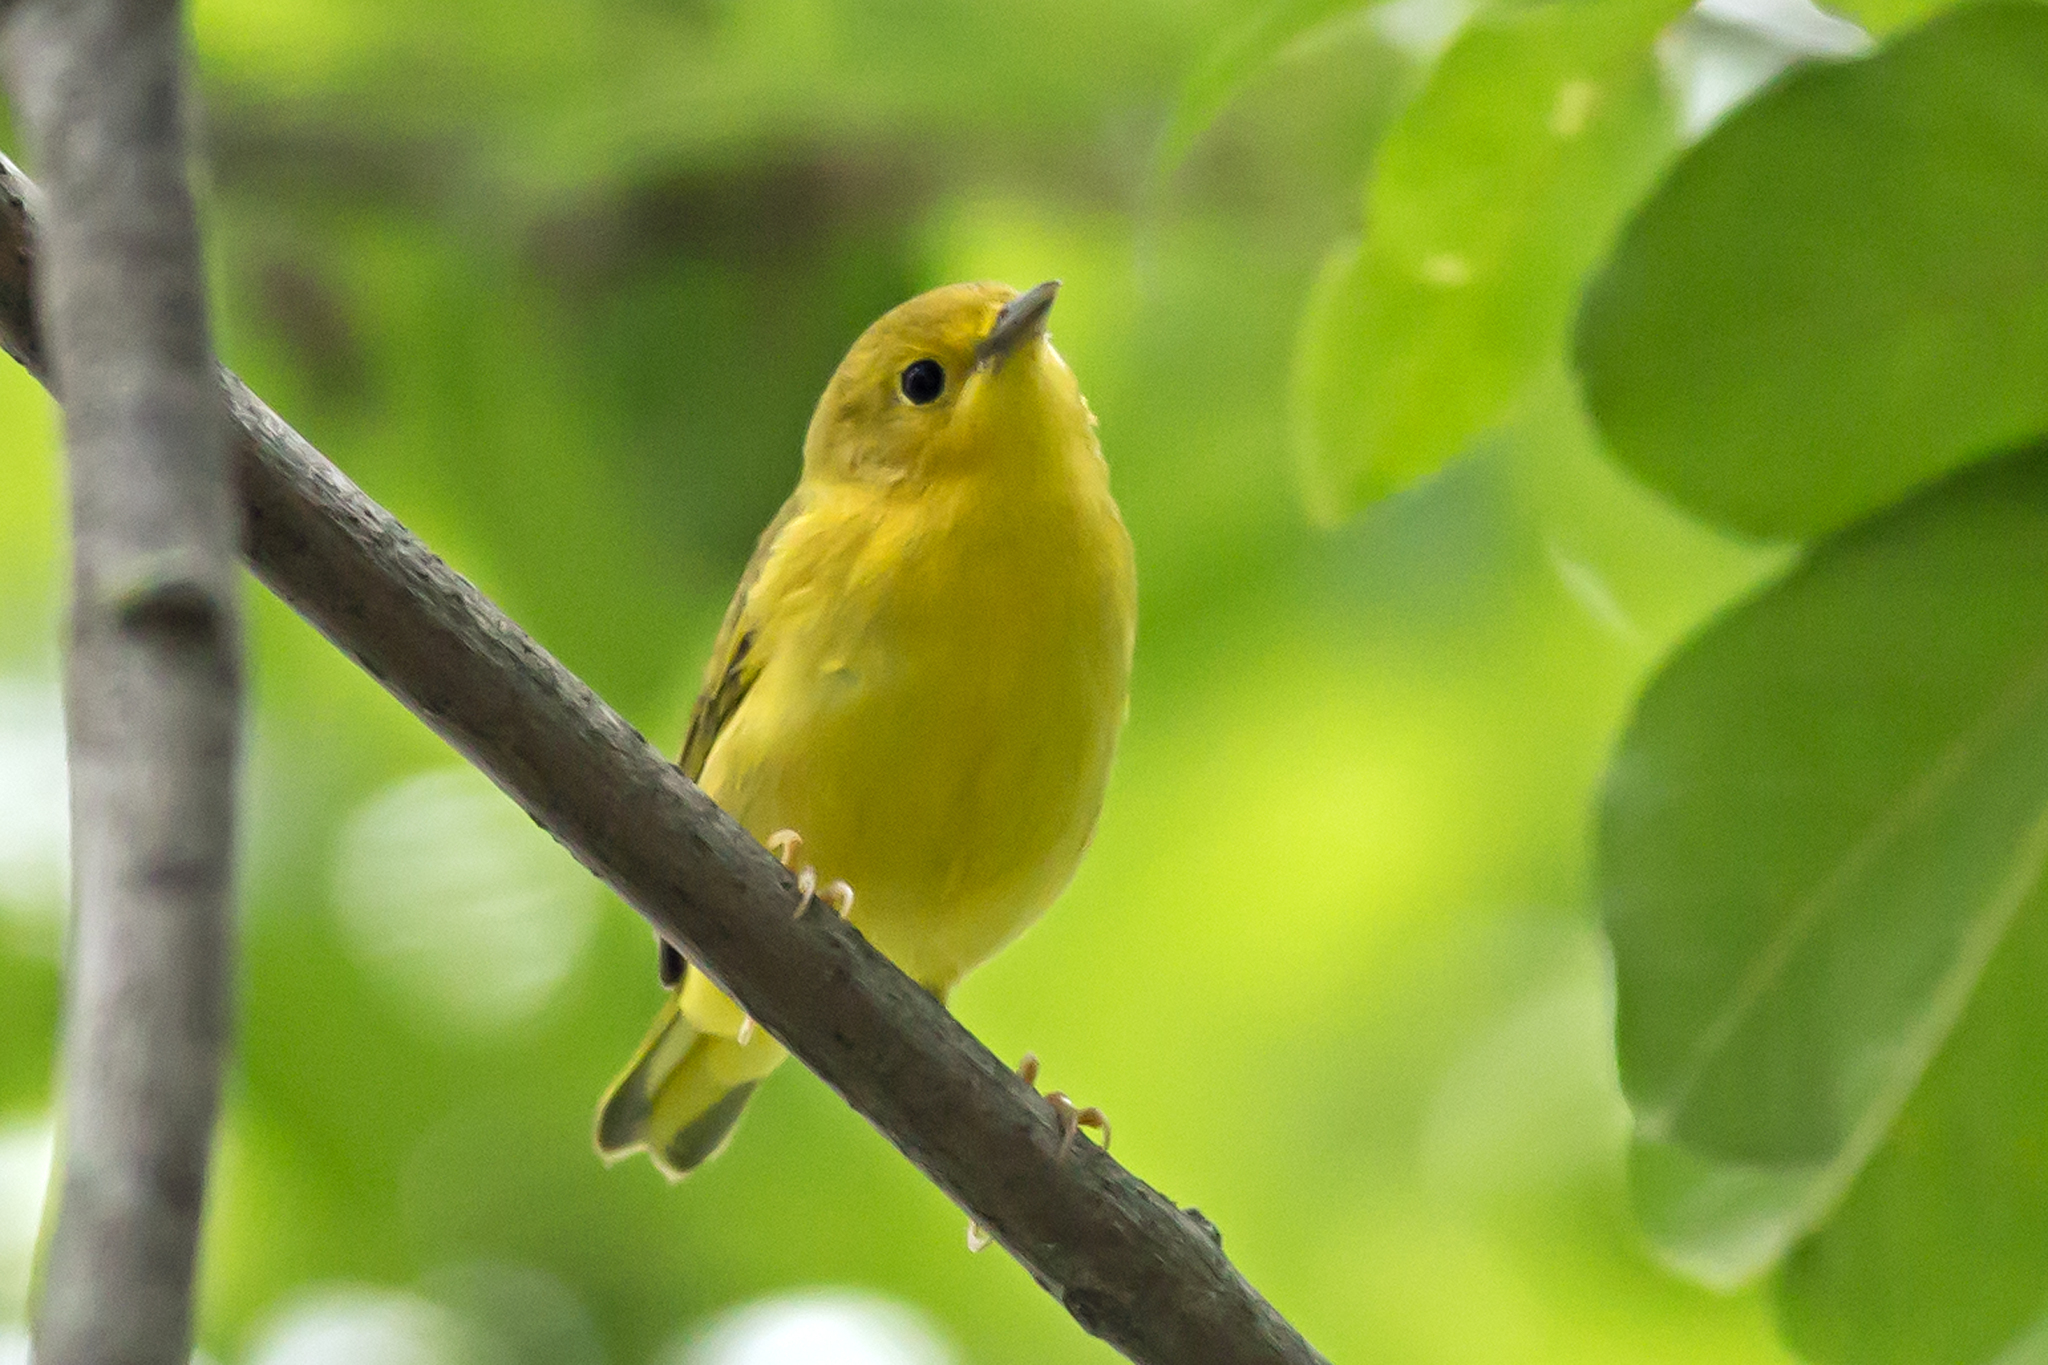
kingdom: Animalia
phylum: Chordata
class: Aves
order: Passeriformes
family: Parulidae
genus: Setophaga
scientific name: Setophaga petechia
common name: Yellow warbler
